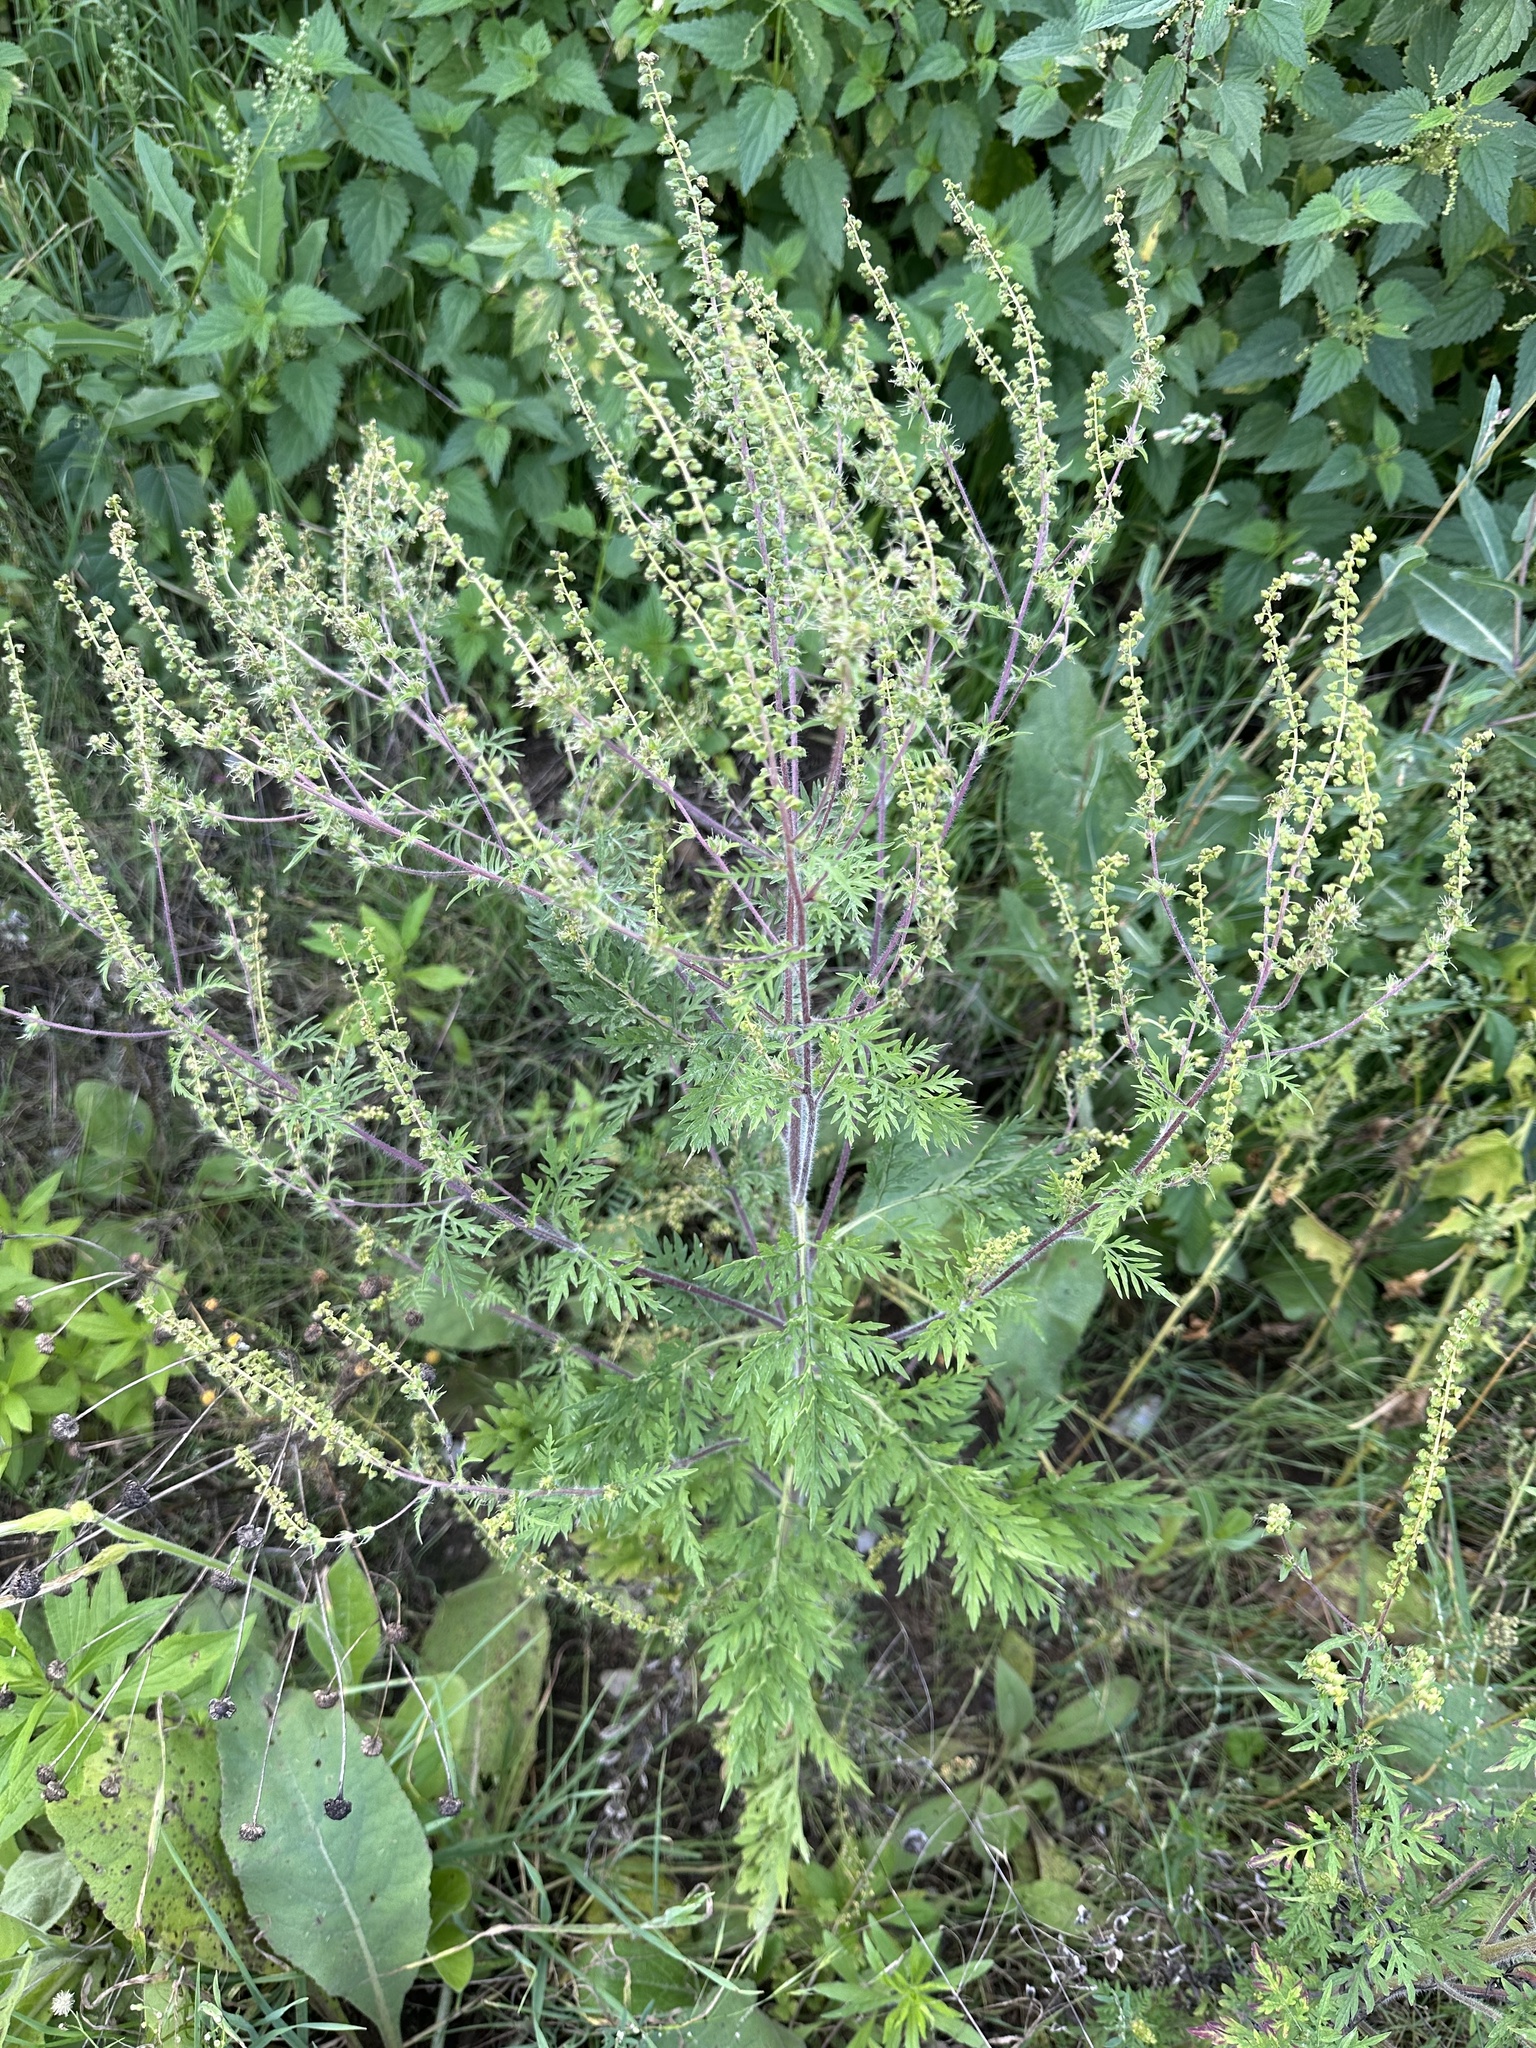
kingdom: Plantae
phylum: Tracheophyta
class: Magnoliopsida
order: Asterales
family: Asteraceae
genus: Ambrosia
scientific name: Ambrosia artemisiifolia
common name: Annual ragweed
